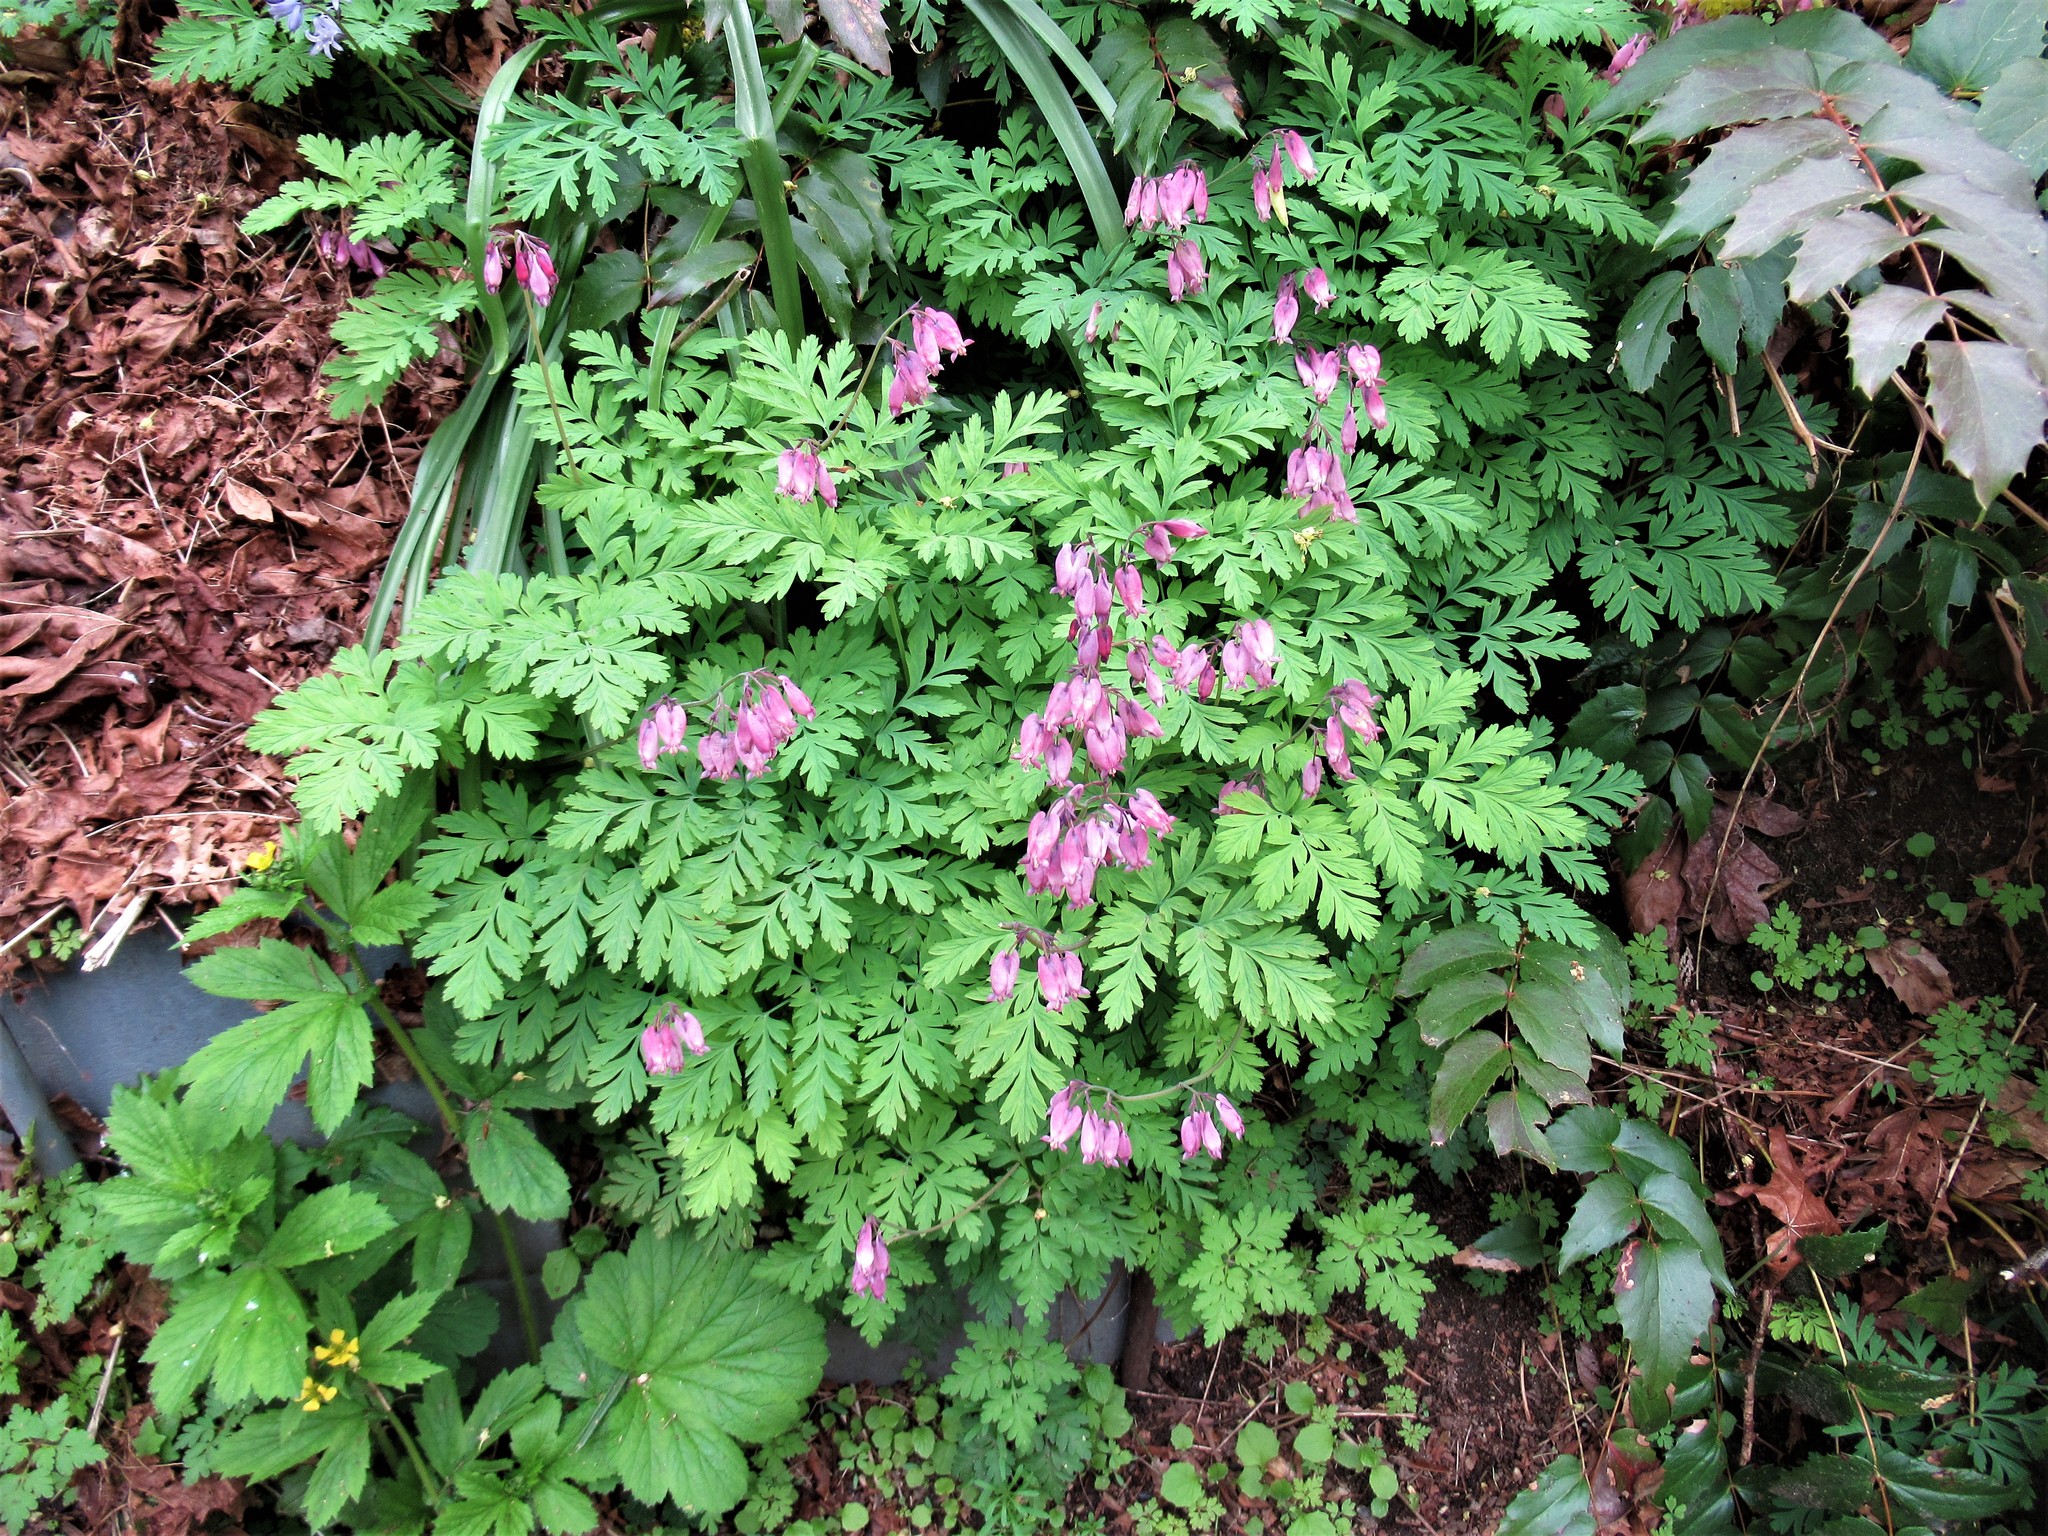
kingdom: Plantae
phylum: Tracheophyta
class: Magnoliopsida
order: Ranunculales
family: Papaveraceae
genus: Dicentra
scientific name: Dicentra formosa
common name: Bleeding-heart
